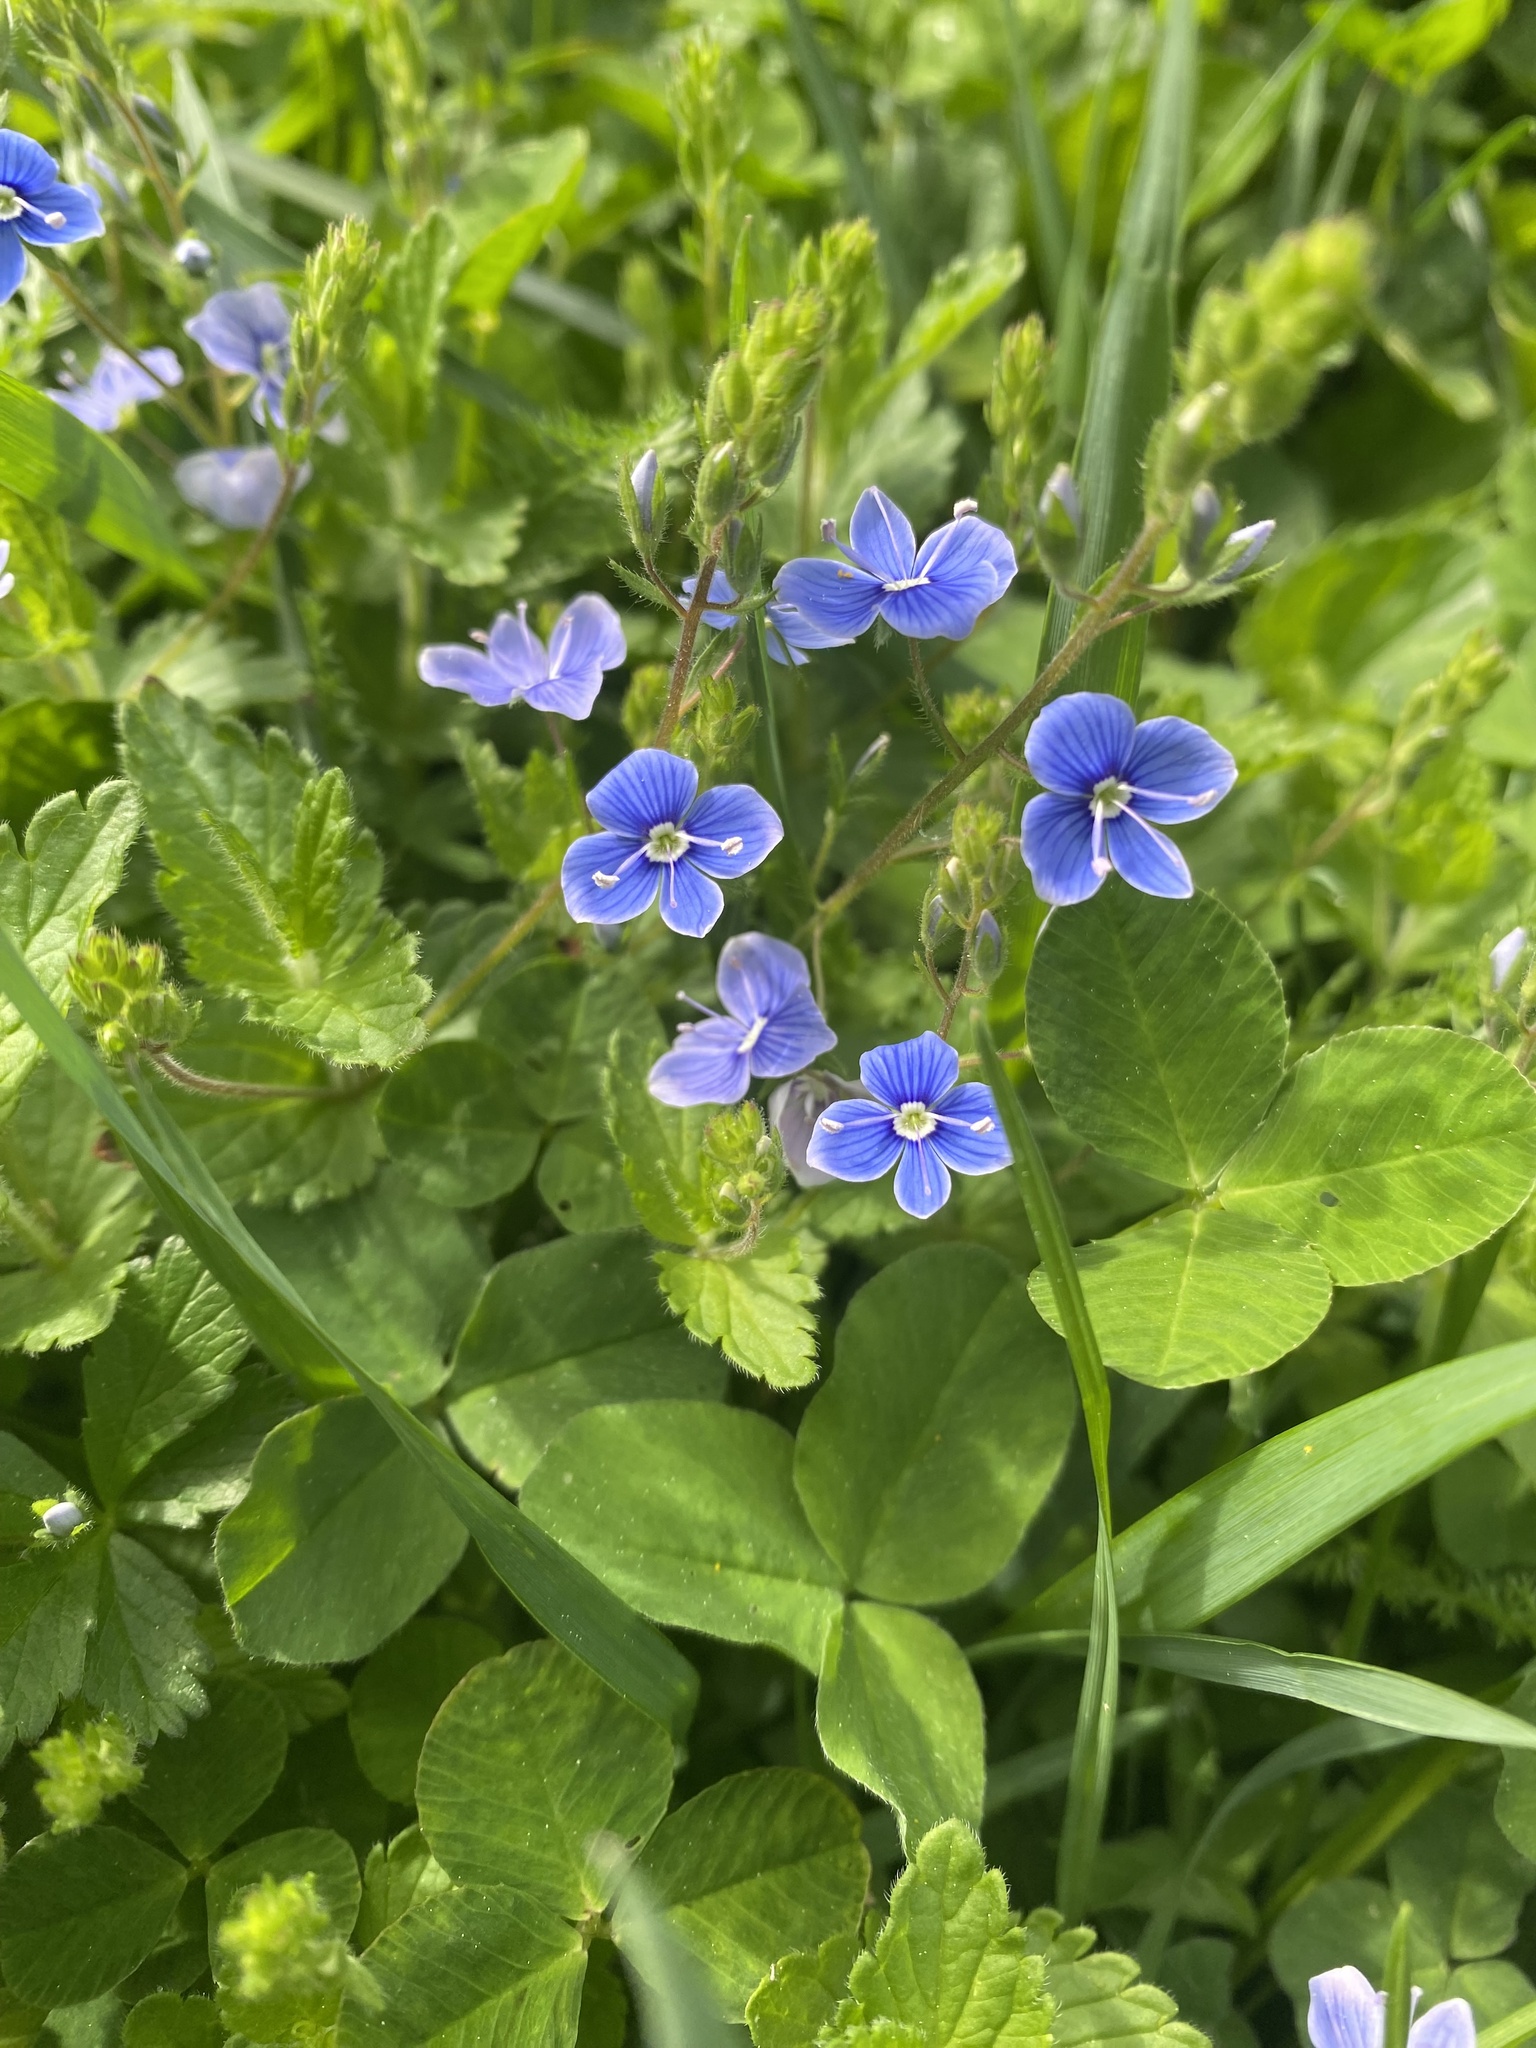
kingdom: Plantae
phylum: Tracheophyta
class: Magnoliopsida
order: Lamiales
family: Plantaginaceae
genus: Veronica
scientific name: Veronica chamaedrys
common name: Germander speedwell
